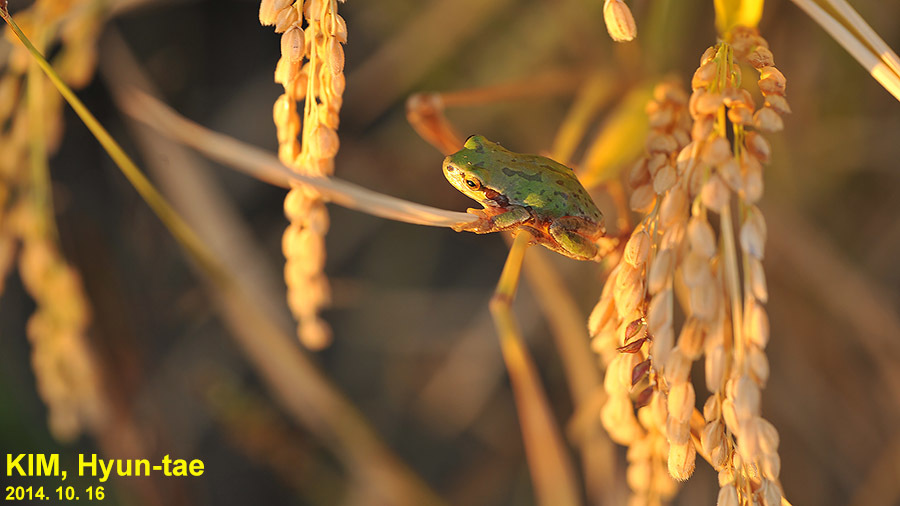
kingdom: Animalia
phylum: Chordata
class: Amphibia
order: Anura
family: Hylidae
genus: Dryophytes
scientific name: Dryophytes immaculatus
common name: North china treefrog
